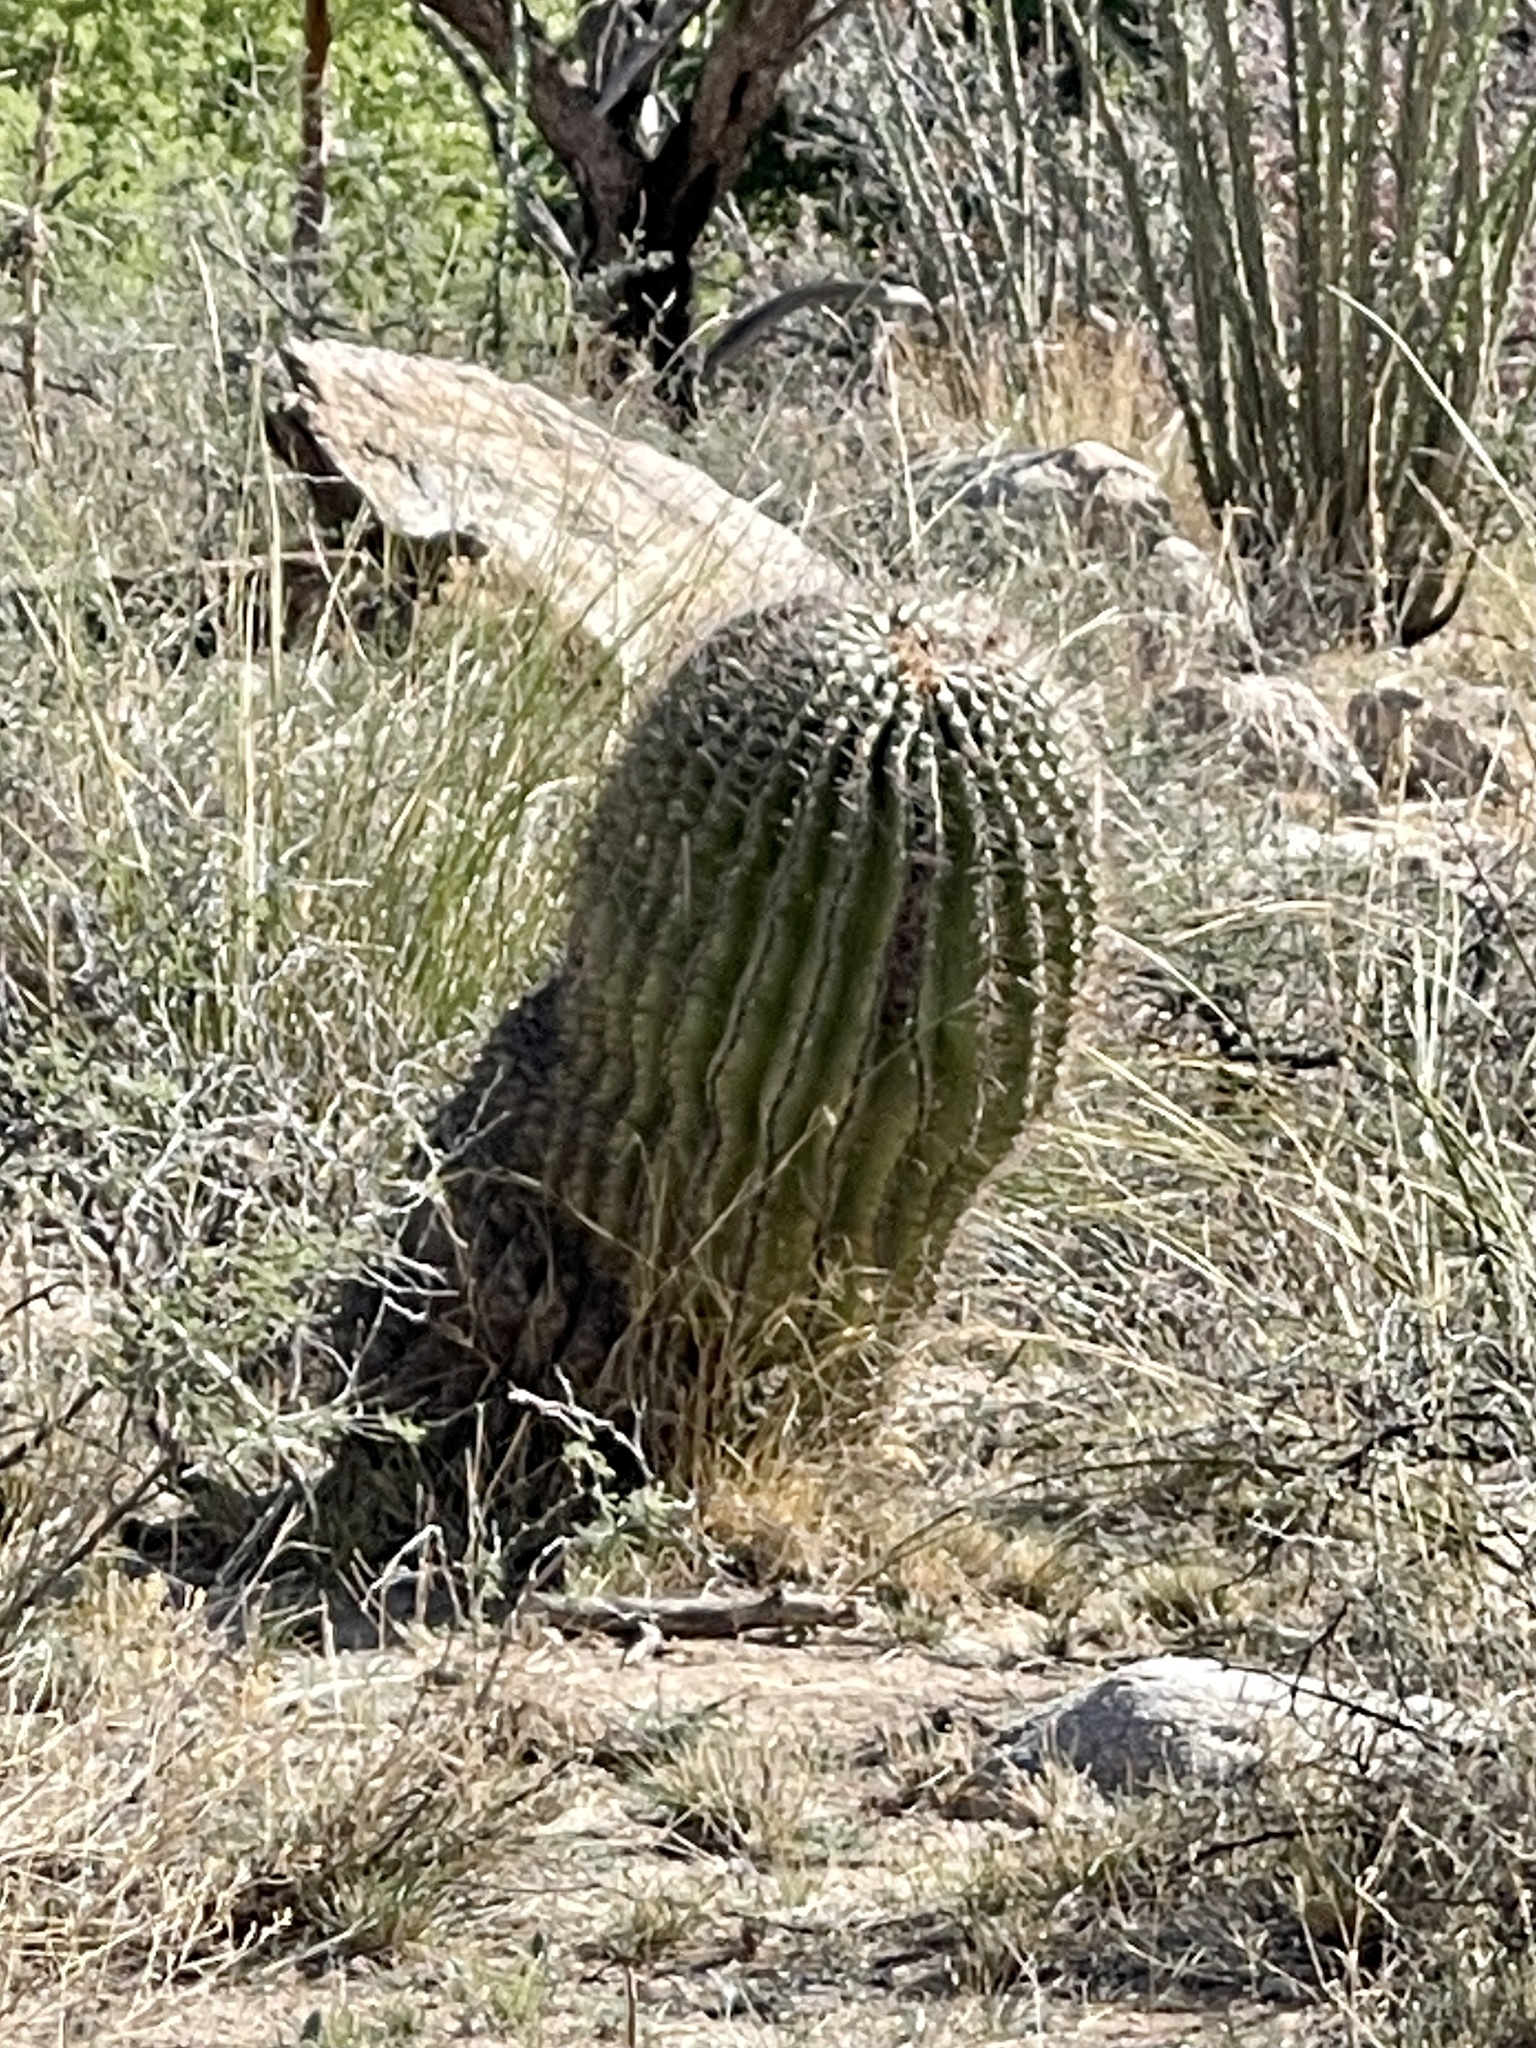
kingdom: Plantae
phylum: Tracheophyta
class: Magnoliopsida
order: Caryophyllales
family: Cactaceae
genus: Ferocactus
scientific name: Ferocactus wislizeni
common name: Candy barrel cactus
